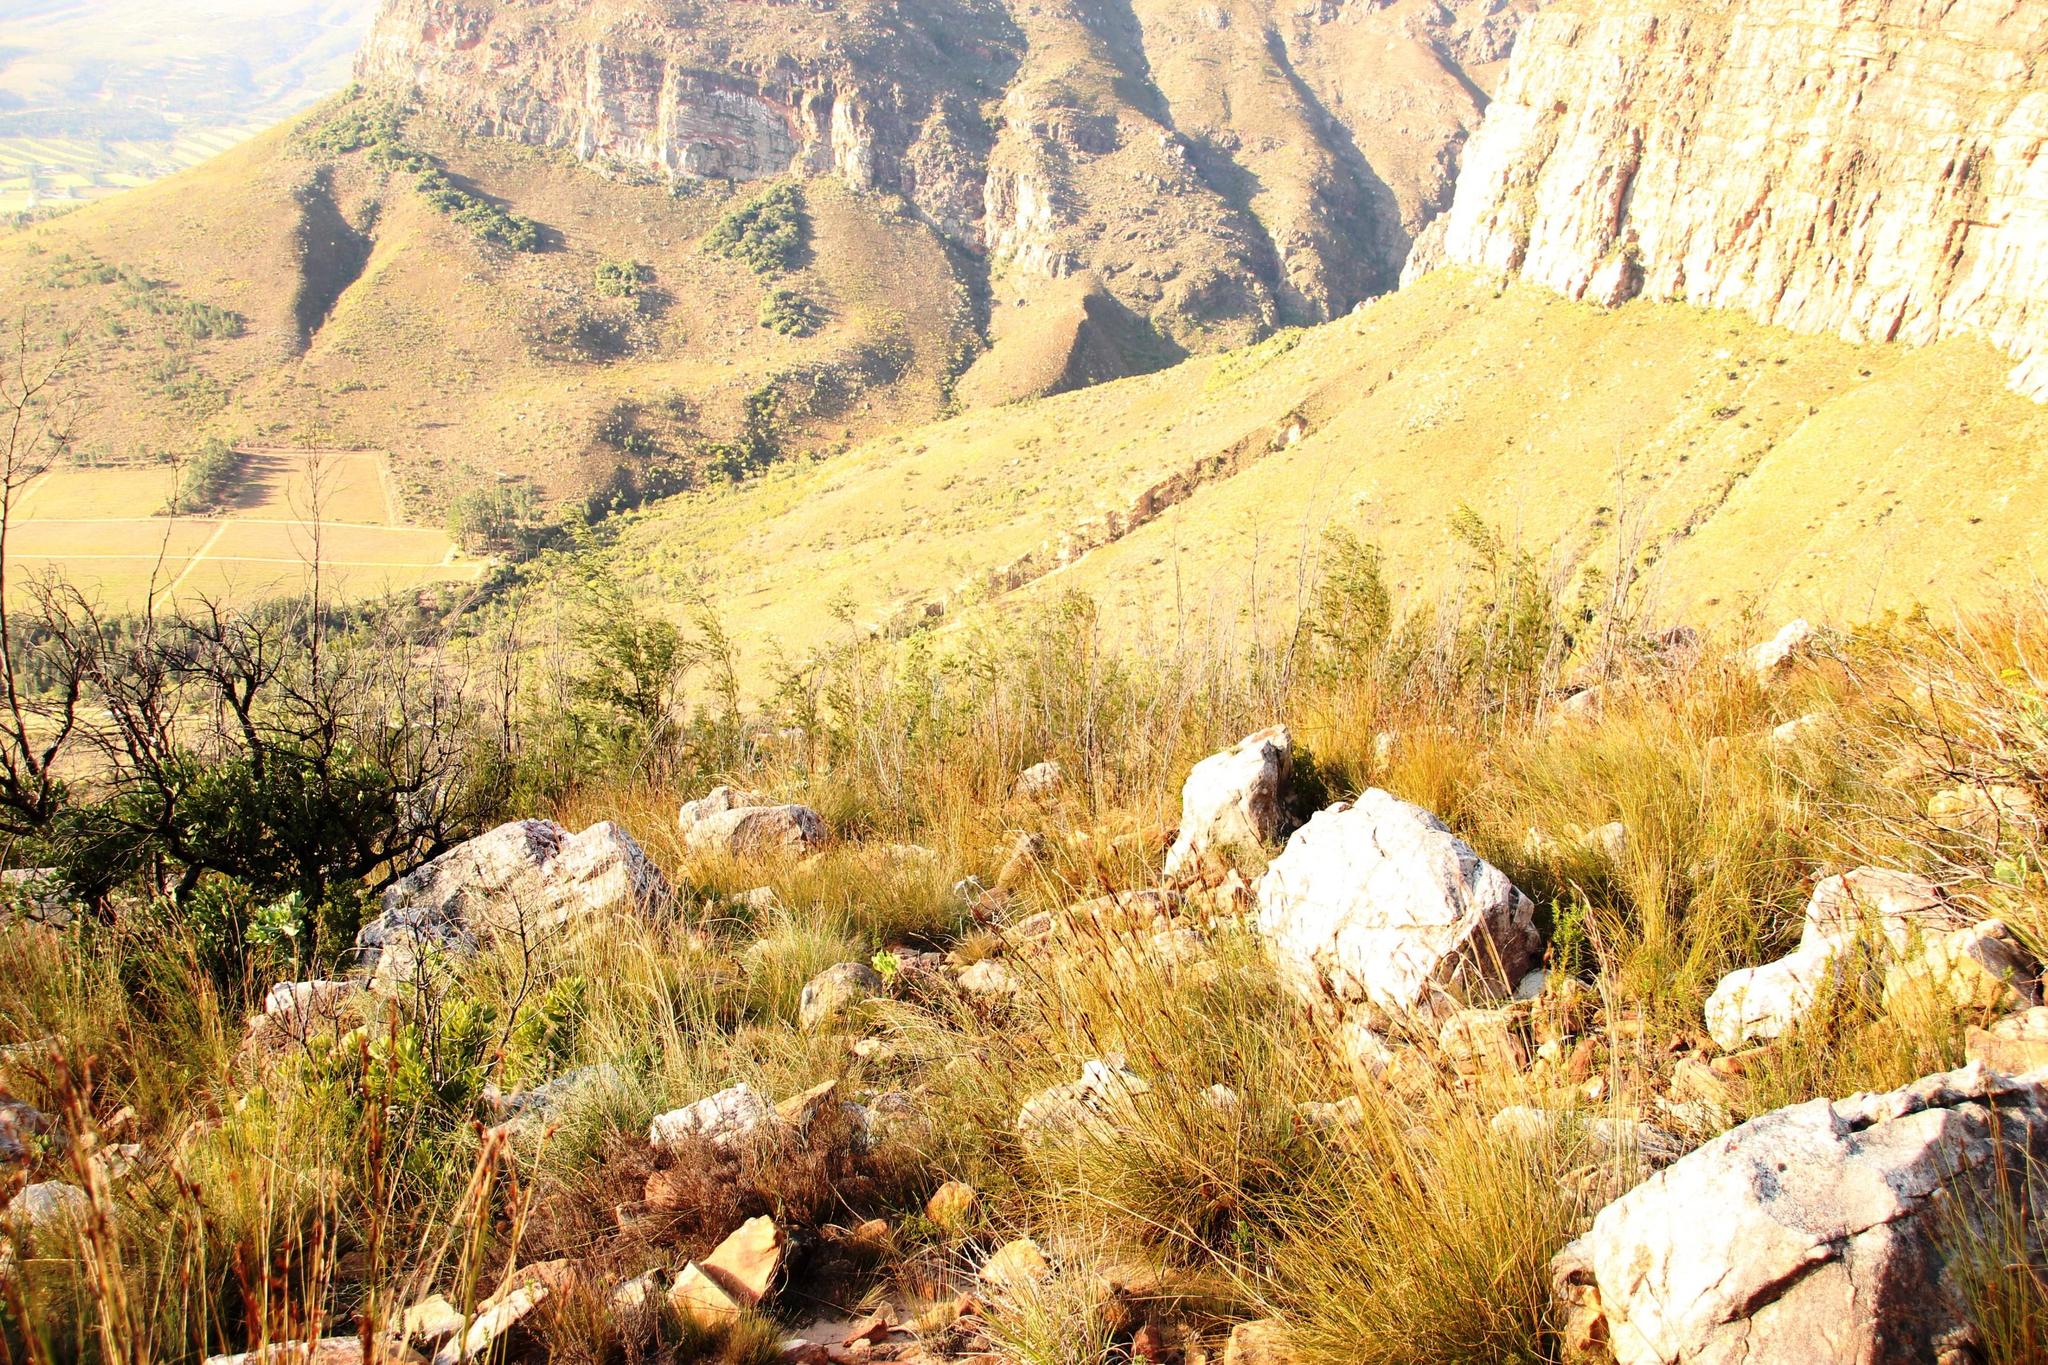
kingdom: Plantae
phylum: Tracheophyta
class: Magnoliopsida
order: Fabales
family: Fabaceae
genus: Acacia
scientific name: Acacia mearnsii
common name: Black wattle
